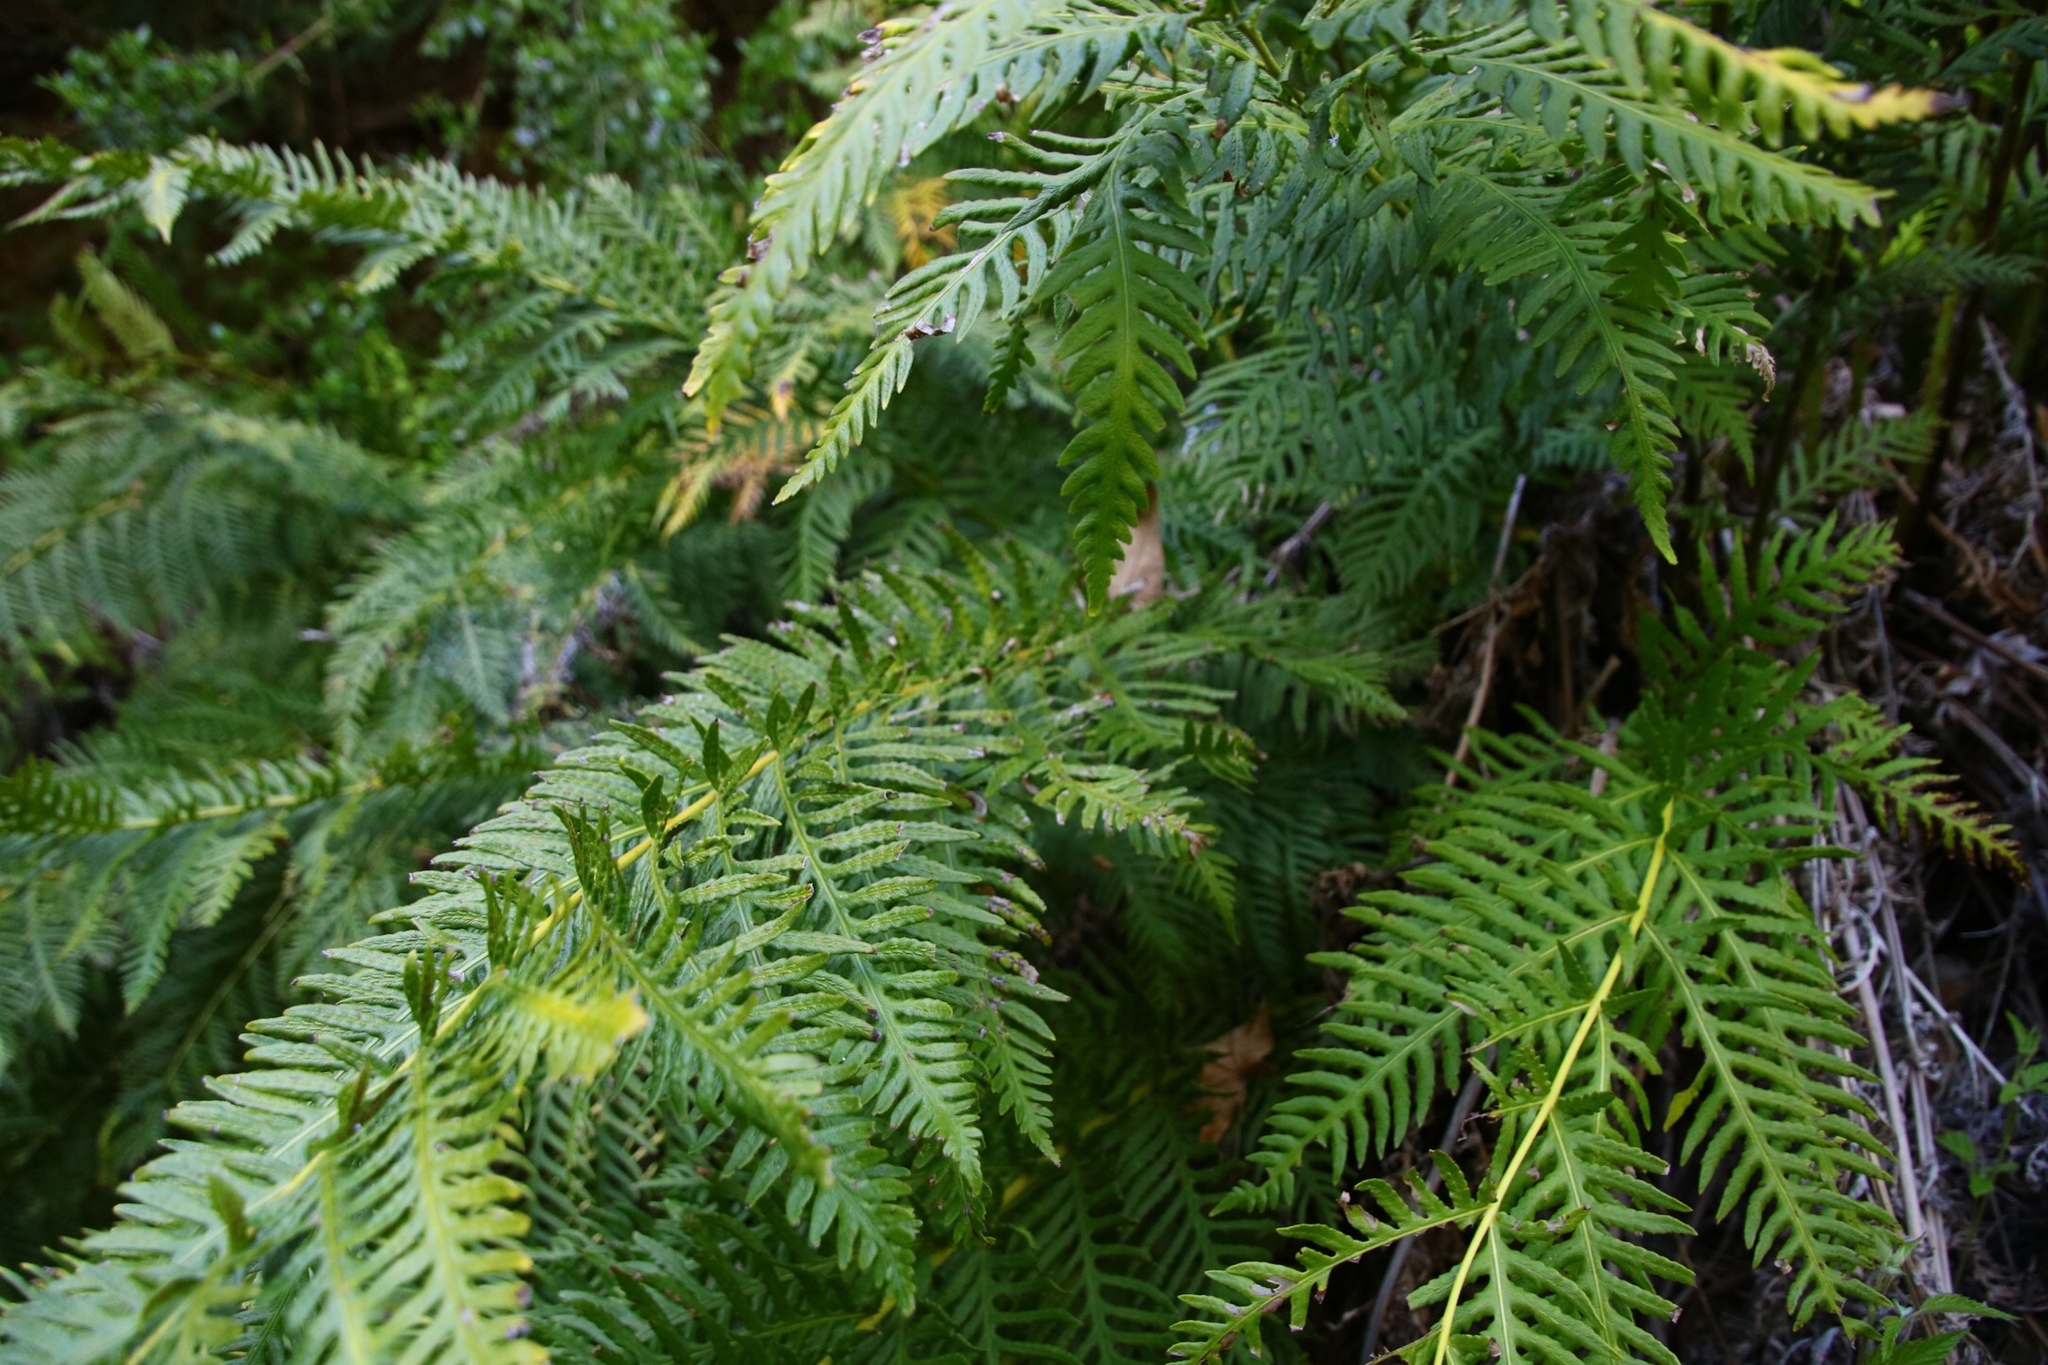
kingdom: Plantae
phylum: Tracheophyta
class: Polypodiopsida
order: Polypodiales
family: Blechnaceae
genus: Woodwardia
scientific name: Woodwardia fimbriata
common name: Giant chain fern
